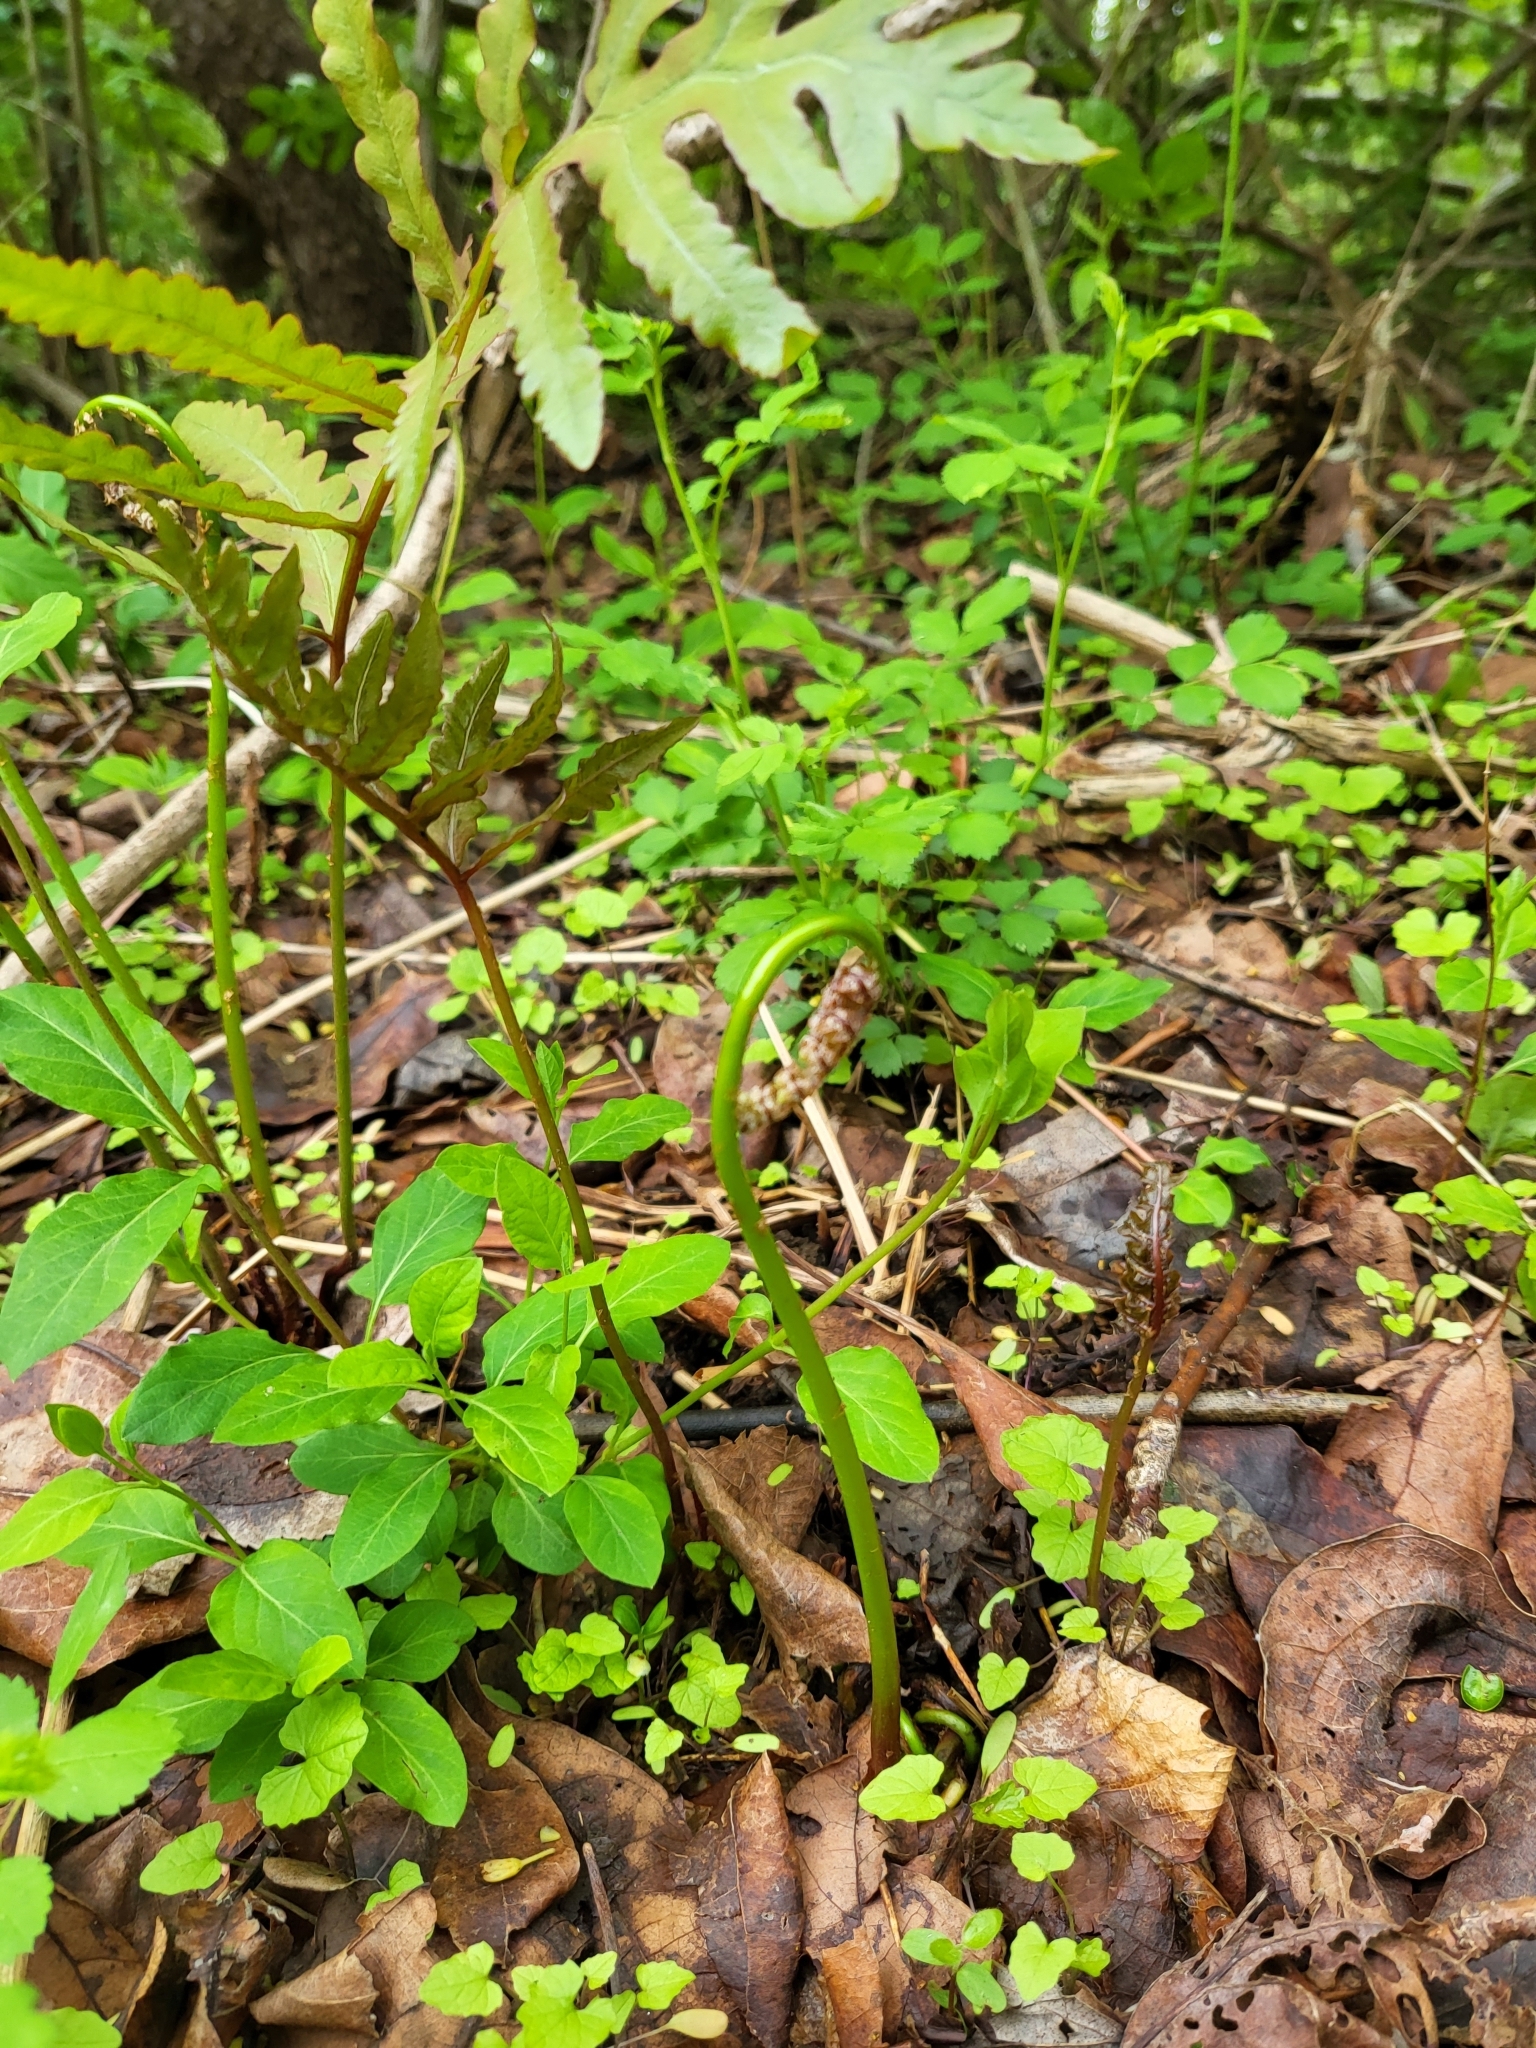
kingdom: Plantae
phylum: Tracheophyta
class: Polypodiopsida
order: Polypodiales
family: Onocleaceae
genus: Onoclea
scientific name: Onoclea sensibilis
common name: Sensitive fern
